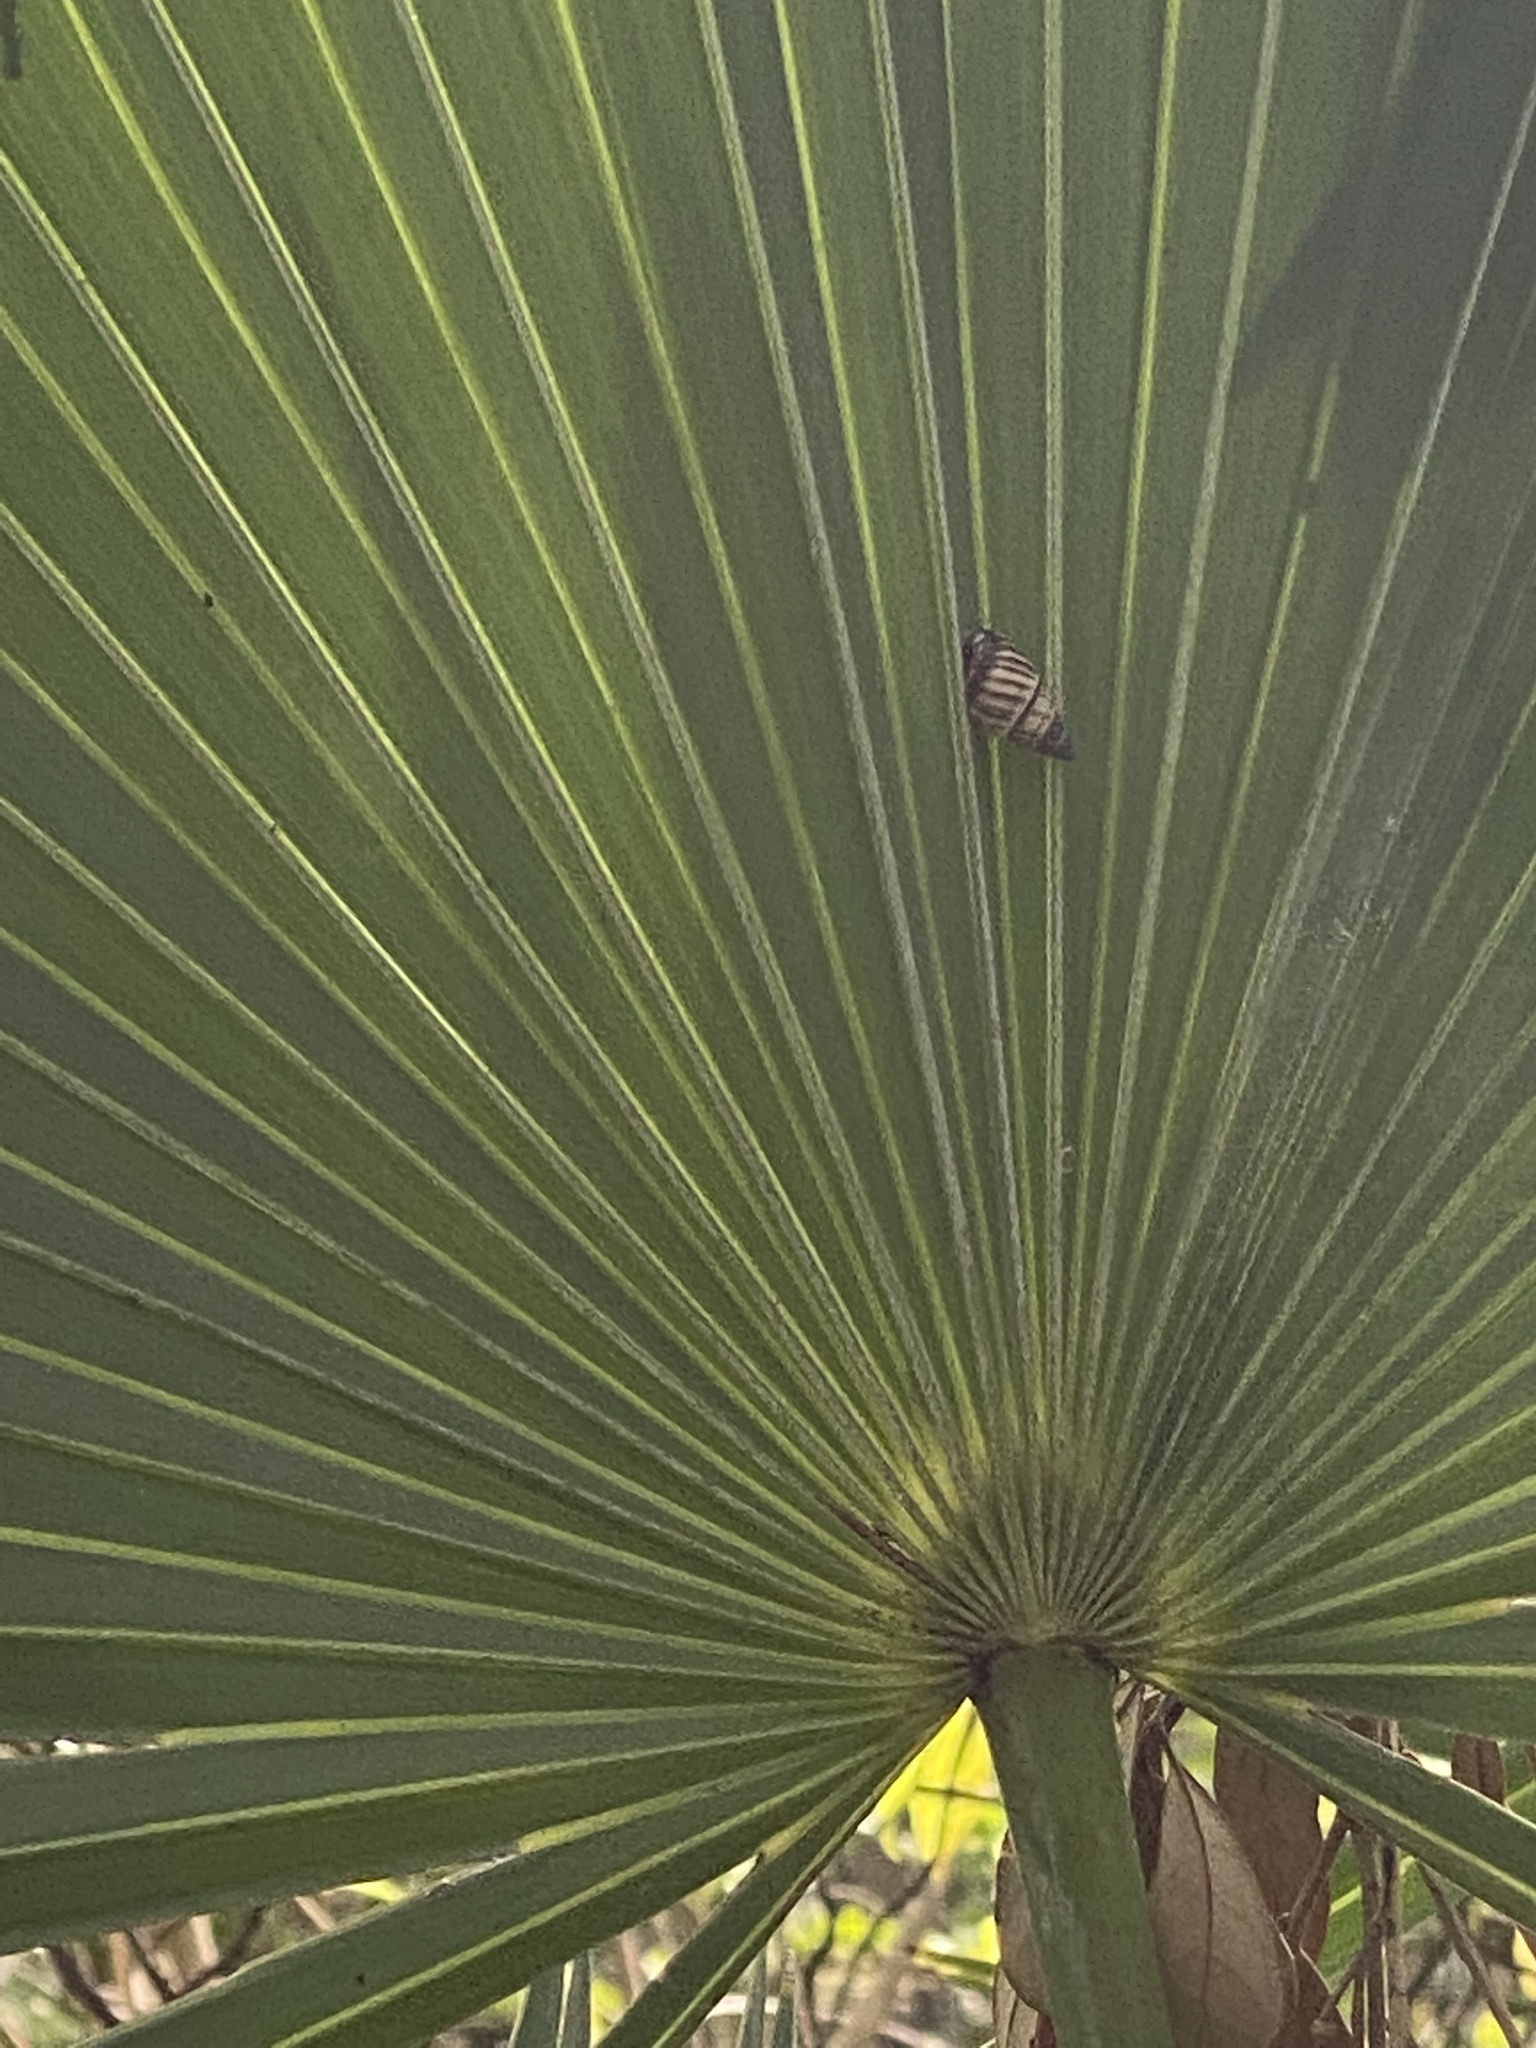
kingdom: Animalia
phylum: Mollusca
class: Gastropoda
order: Stylommatophora
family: Bulimulidae
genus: Drymaeus
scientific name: Drymaeus
